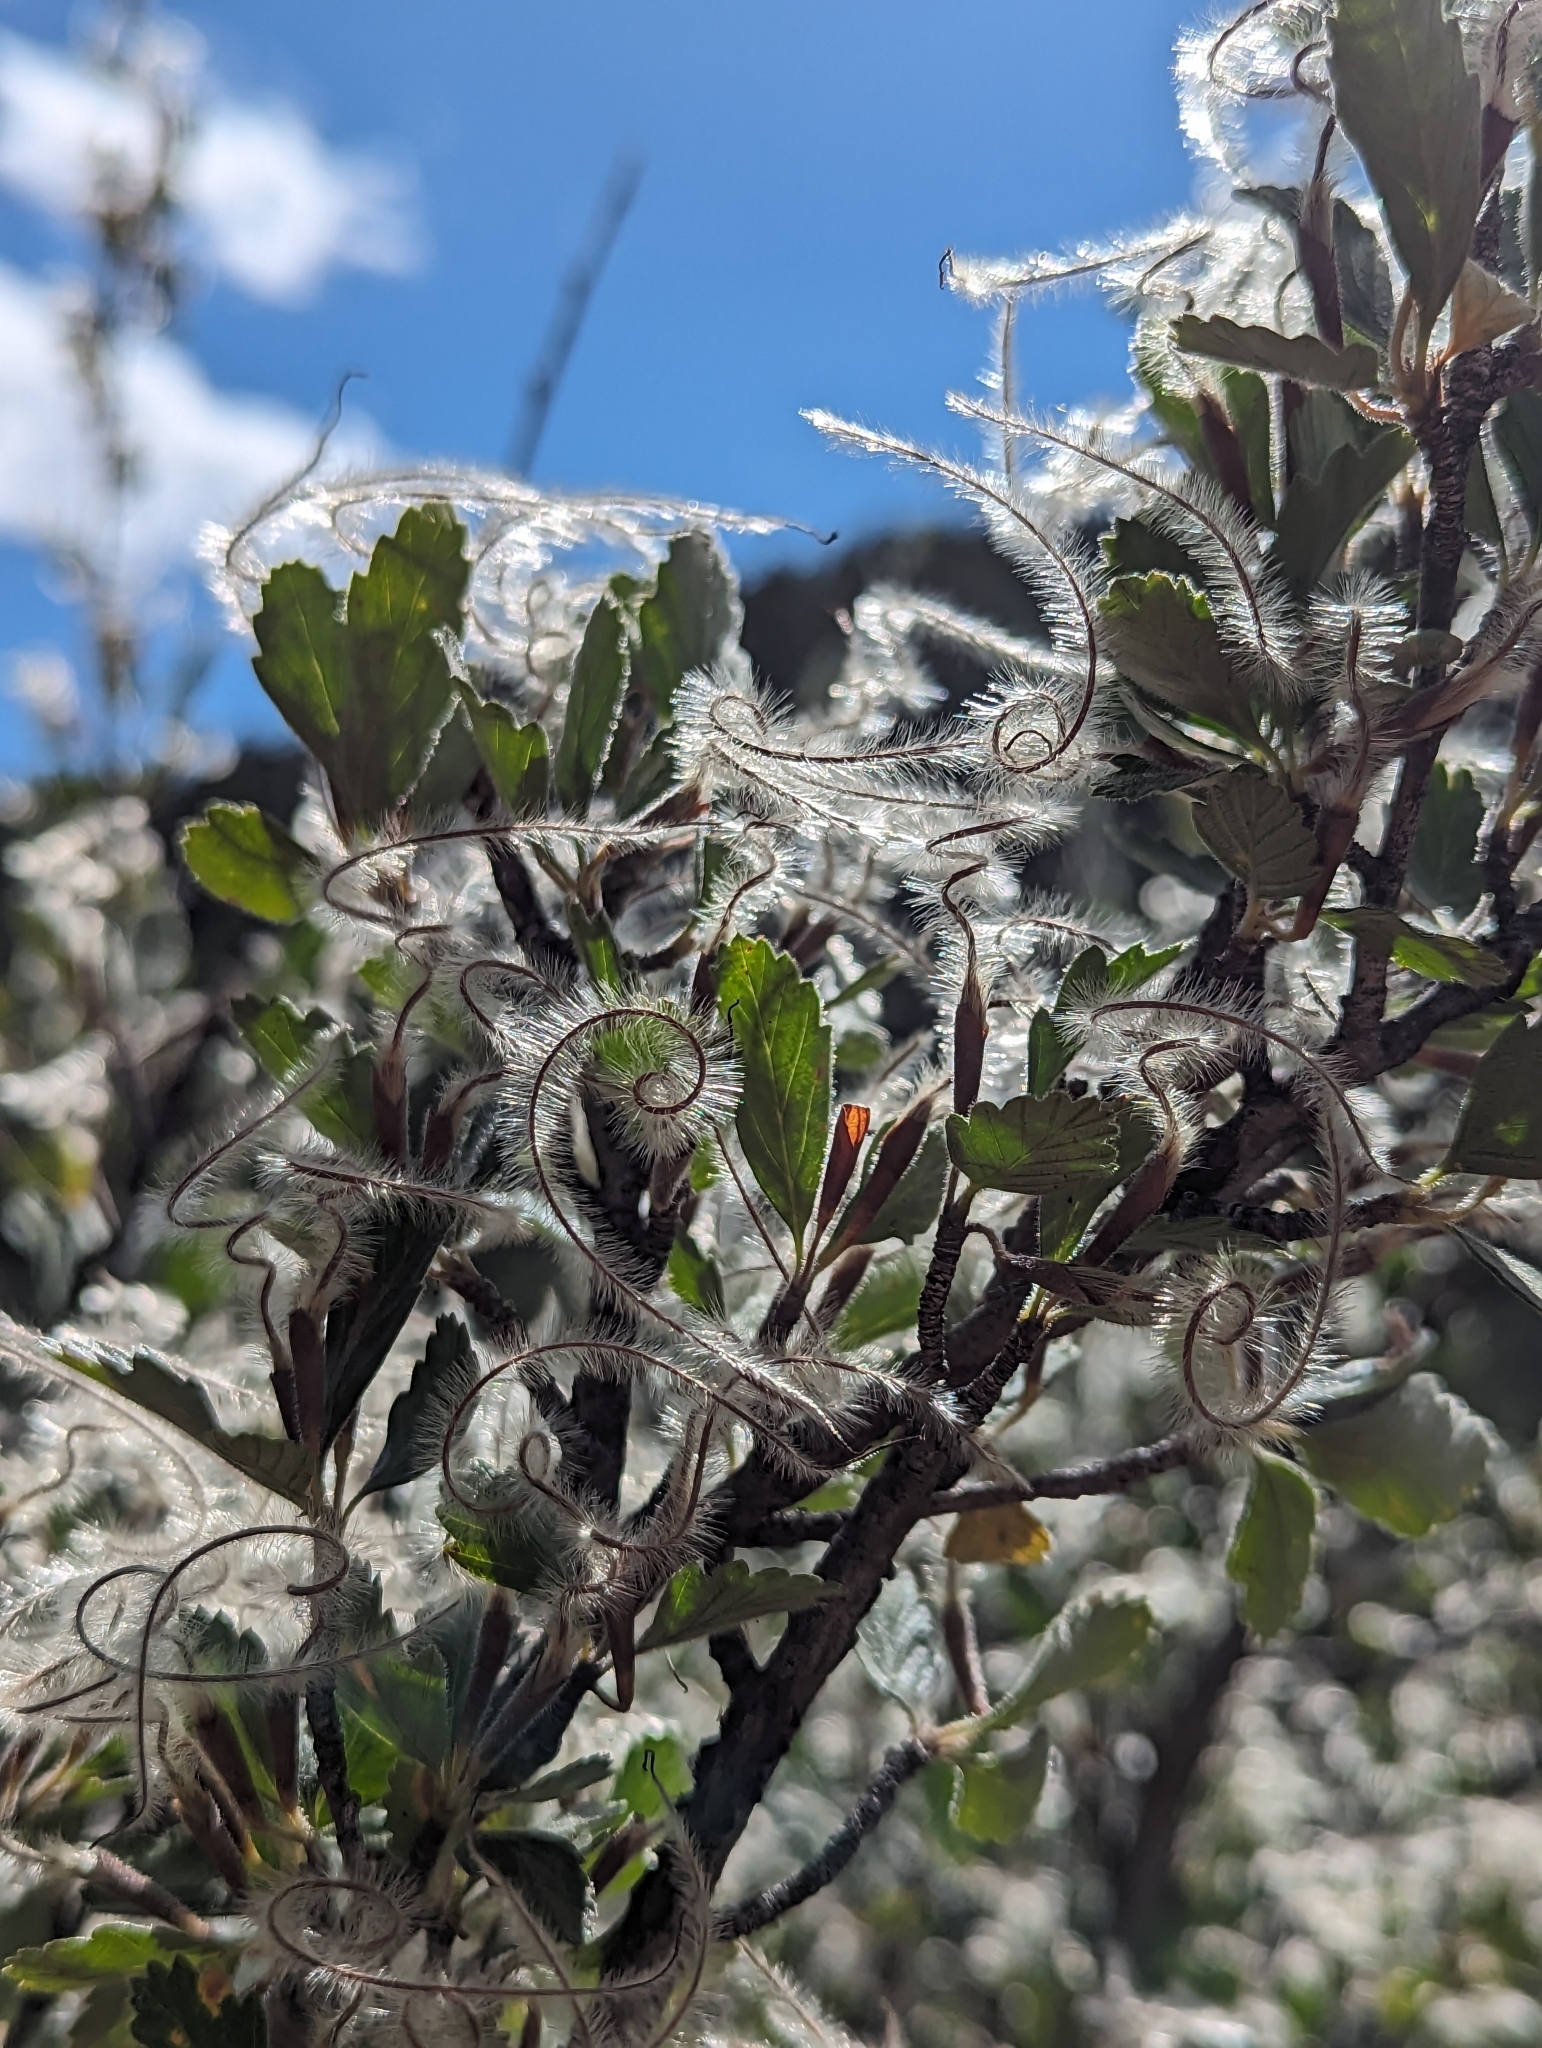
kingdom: Plantae
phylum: Tracheophyta
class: Magnoliopsida
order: Rosales
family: Rosaceae
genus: Cercocarpus
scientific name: Cercocarpus montanus
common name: Alder-leaf cercocarpus
